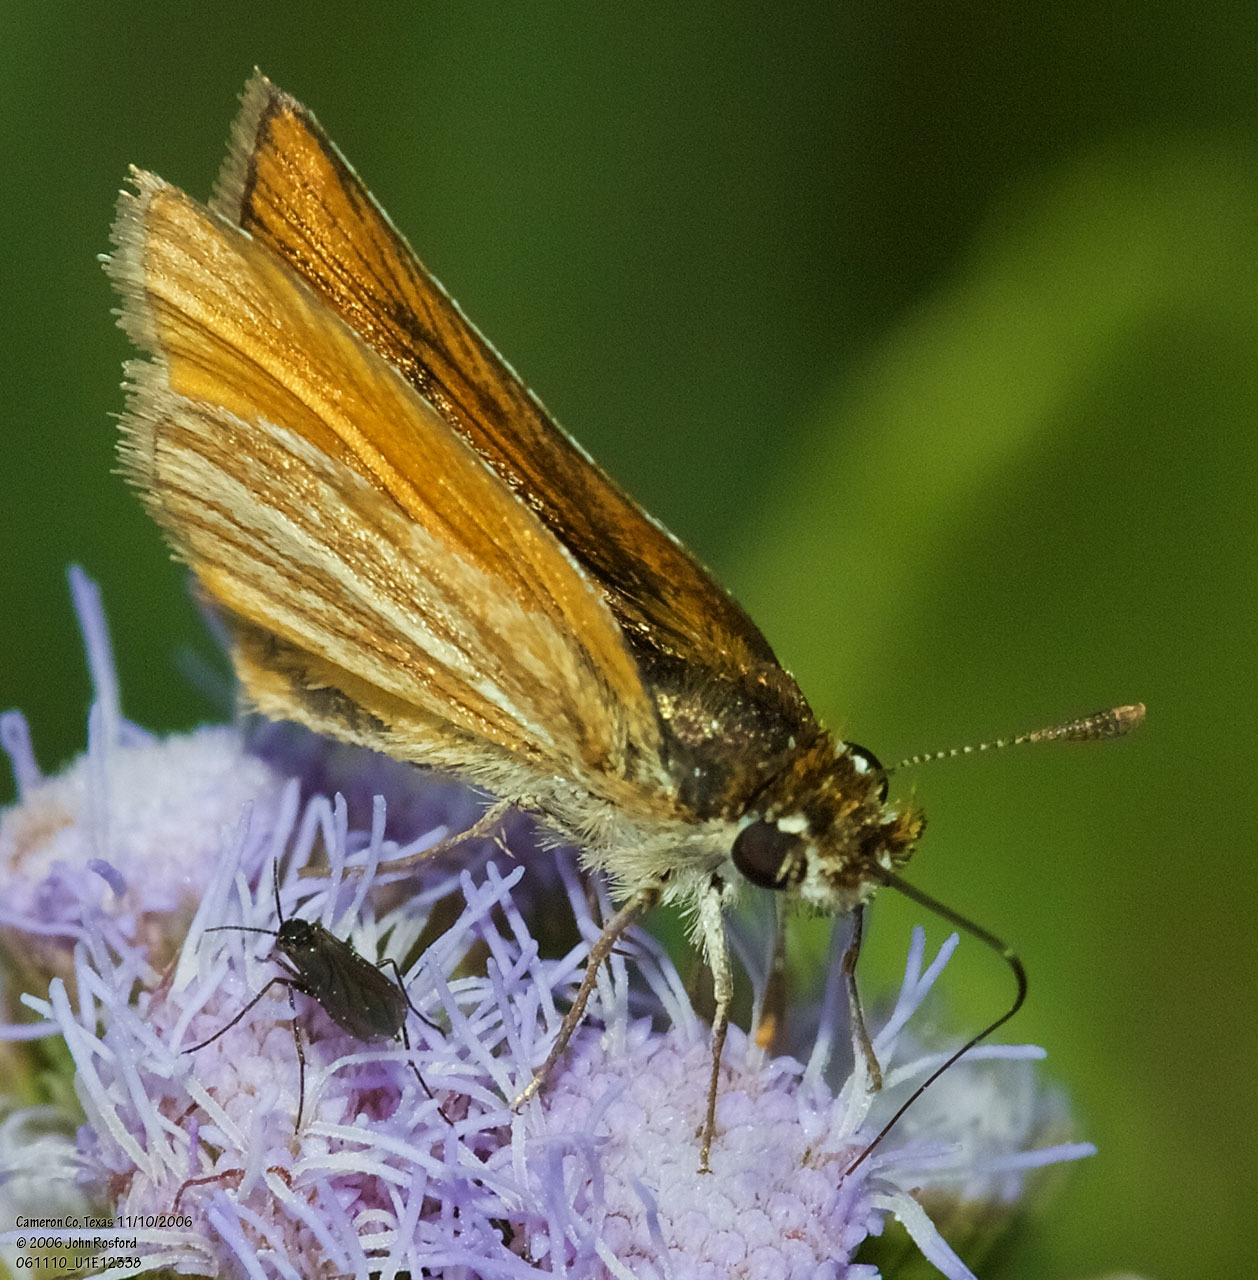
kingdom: Animalia
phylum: Arthropoda
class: Insecta
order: Lepidoptera
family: Hesperiidae
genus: Copaeodes
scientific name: Copaeodes minima
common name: Southern skipperling
